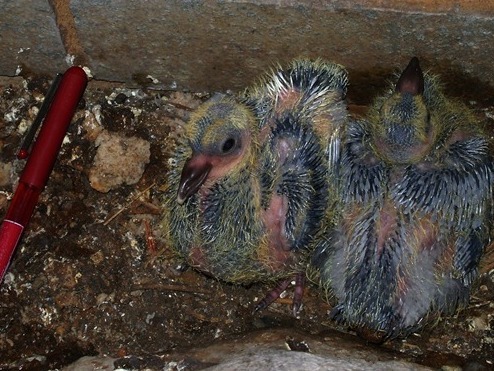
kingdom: Animalia
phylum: Chordata
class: Aves
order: Columbiformes
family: Columbidae
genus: Columba
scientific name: Columba livia
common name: Rock pigeon
